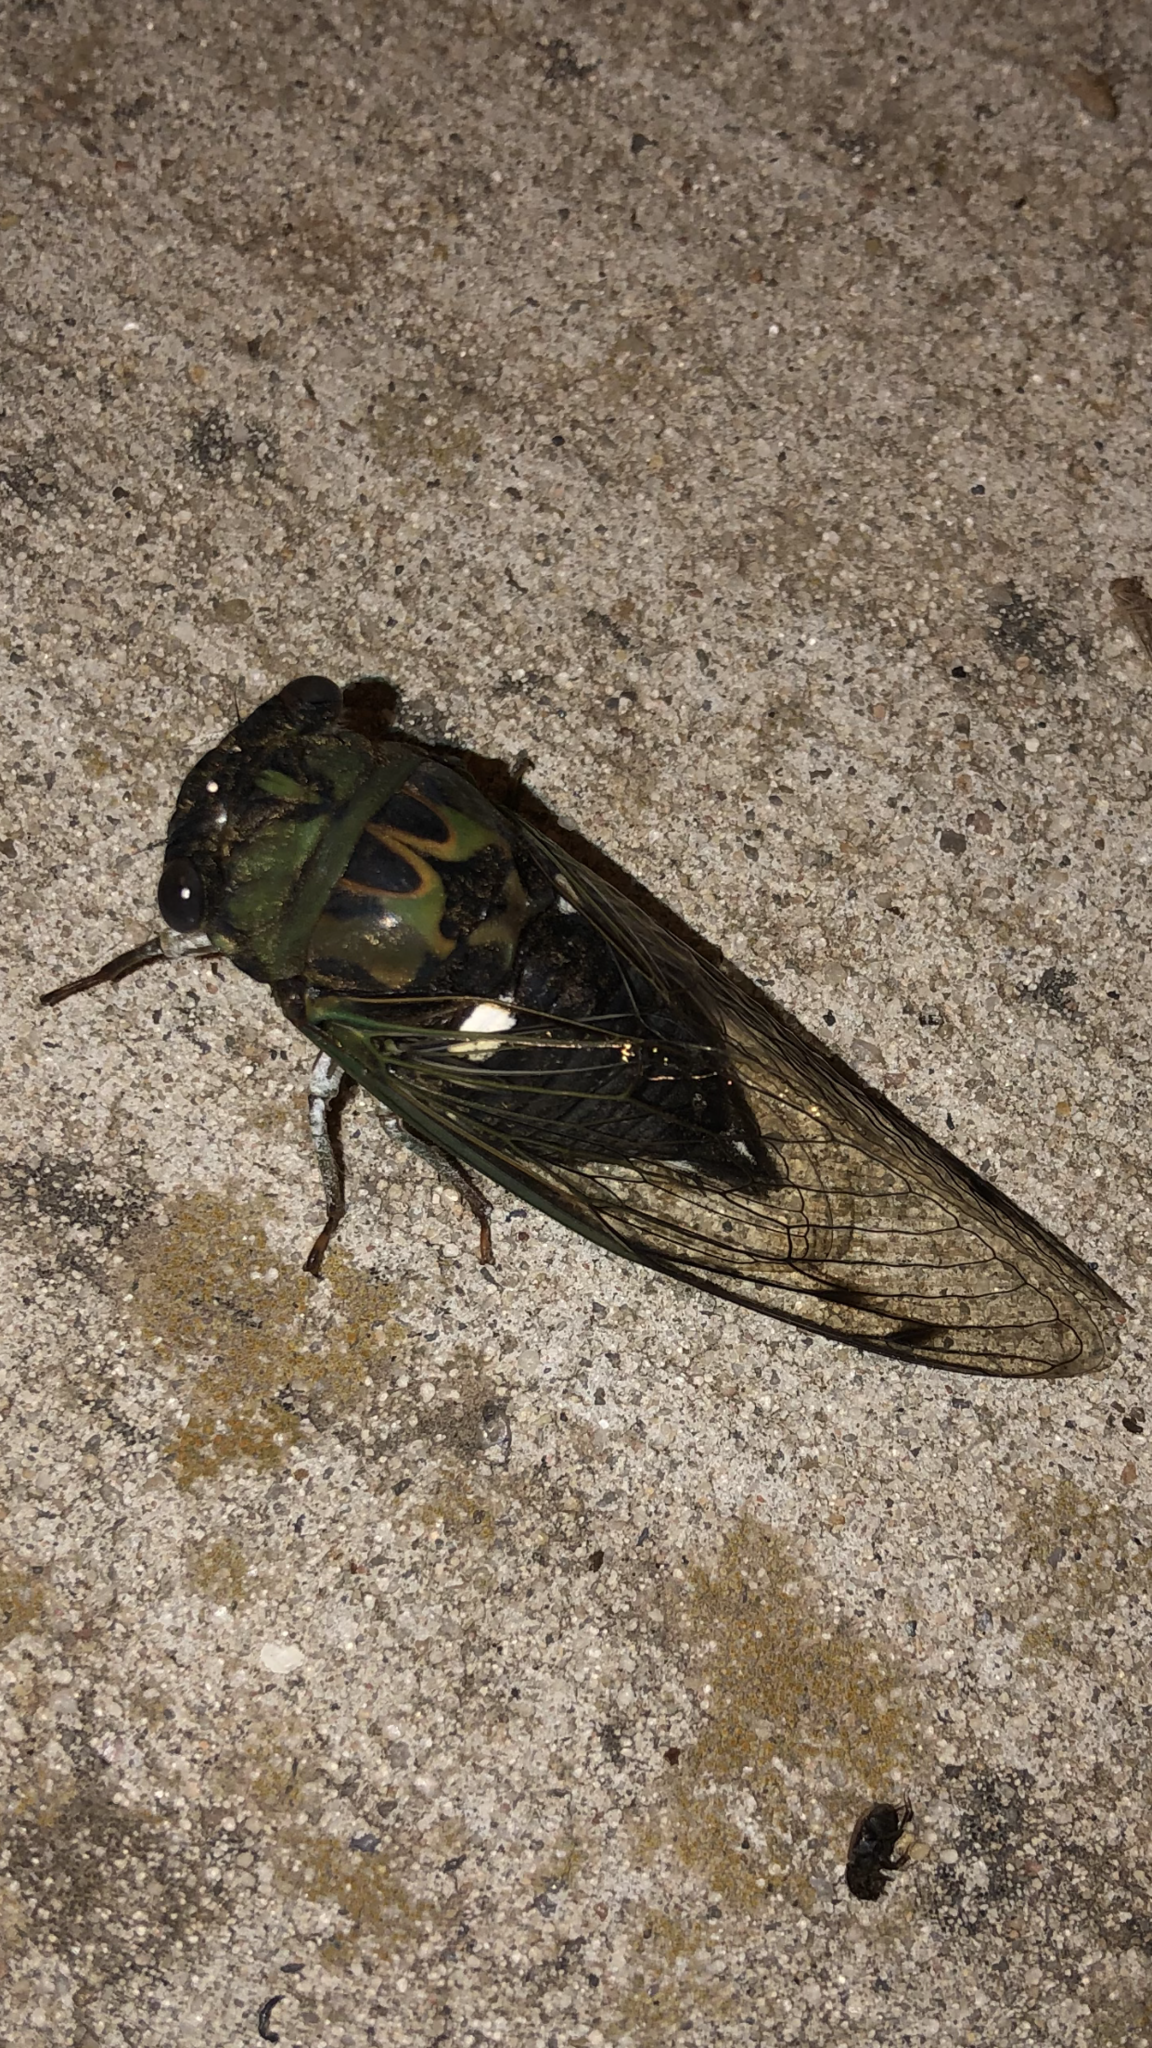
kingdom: Animalia
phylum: Arthropoda
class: Insecta
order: Hemiptera
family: Cicadidae
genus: Neotibicen
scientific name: Neotibicen pruinosus
